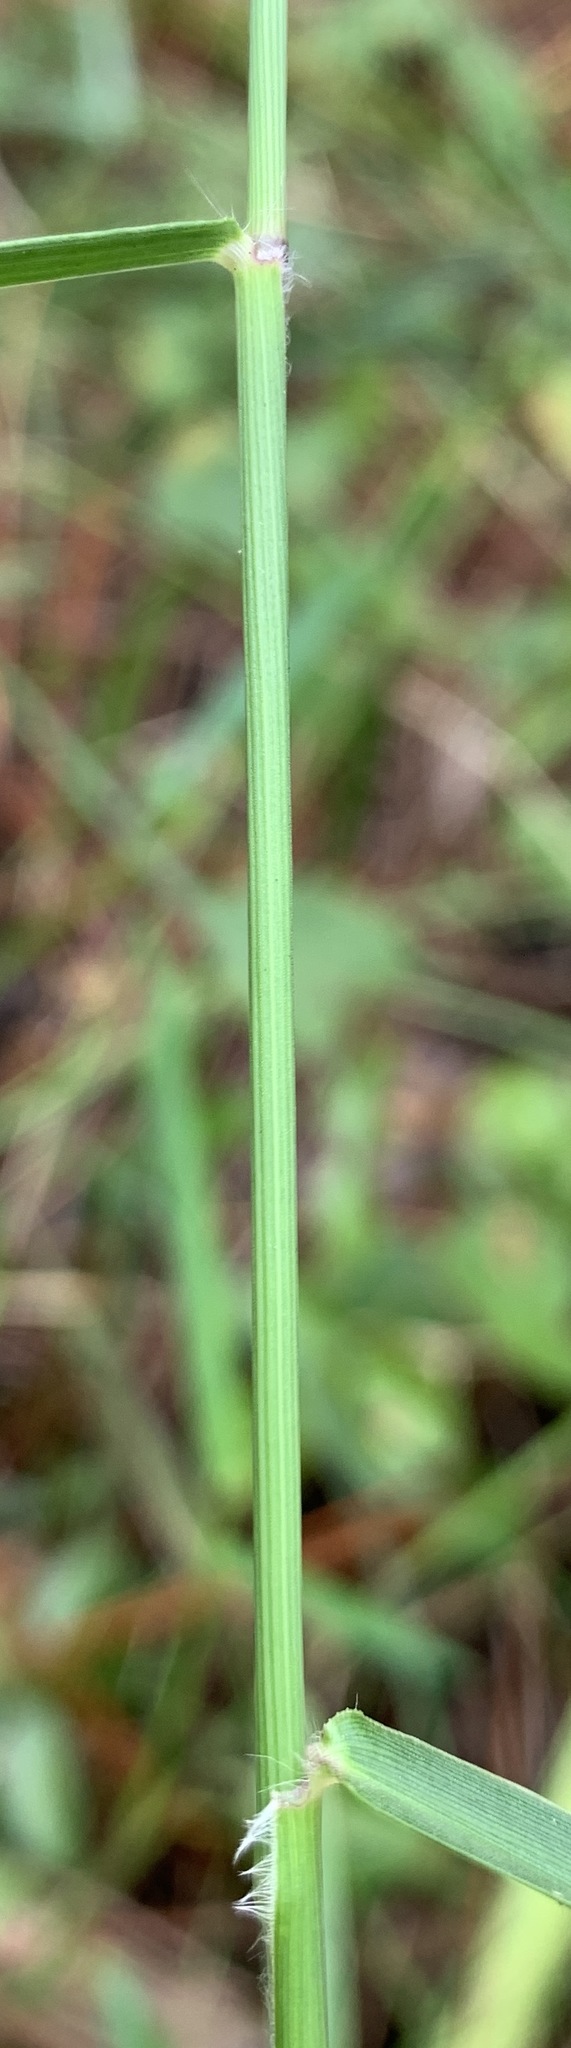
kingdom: Plantae
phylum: Tracheophyta
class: Liliopsida
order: Poales
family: Poaceae
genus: Sacciolepis
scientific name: Sacciolepis striata
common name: American cupscale
